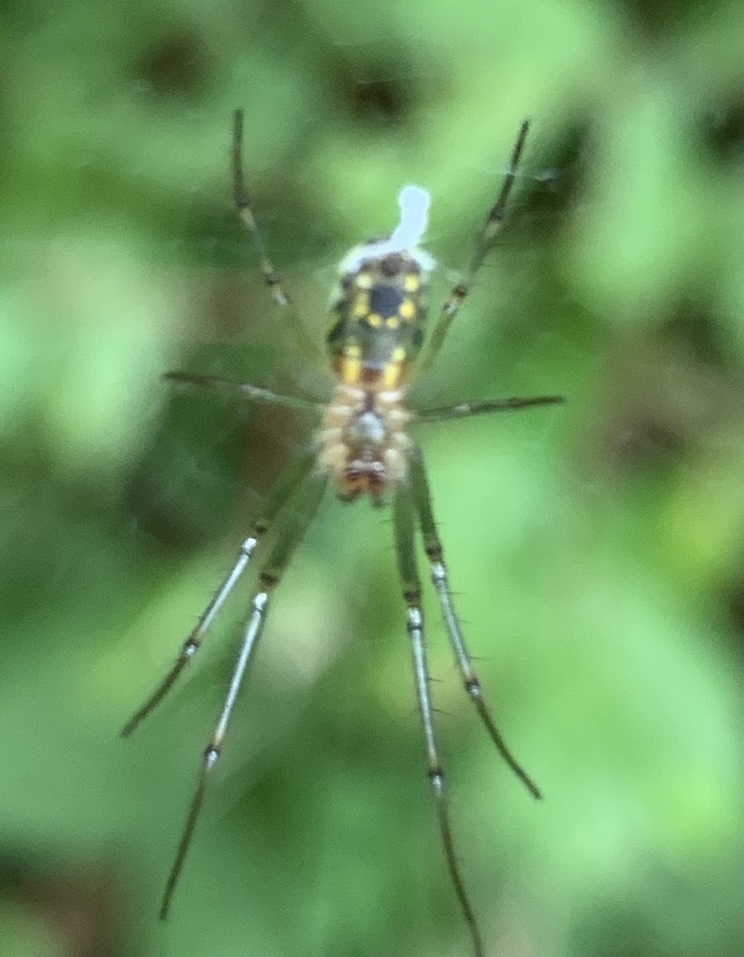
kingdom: Animalia
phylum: Arthropoda
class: Arachnida
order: Araneae
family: Tetragnathidae
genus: Leucauge
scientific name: Leucauge venusta
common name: Longjawed orb weavers
